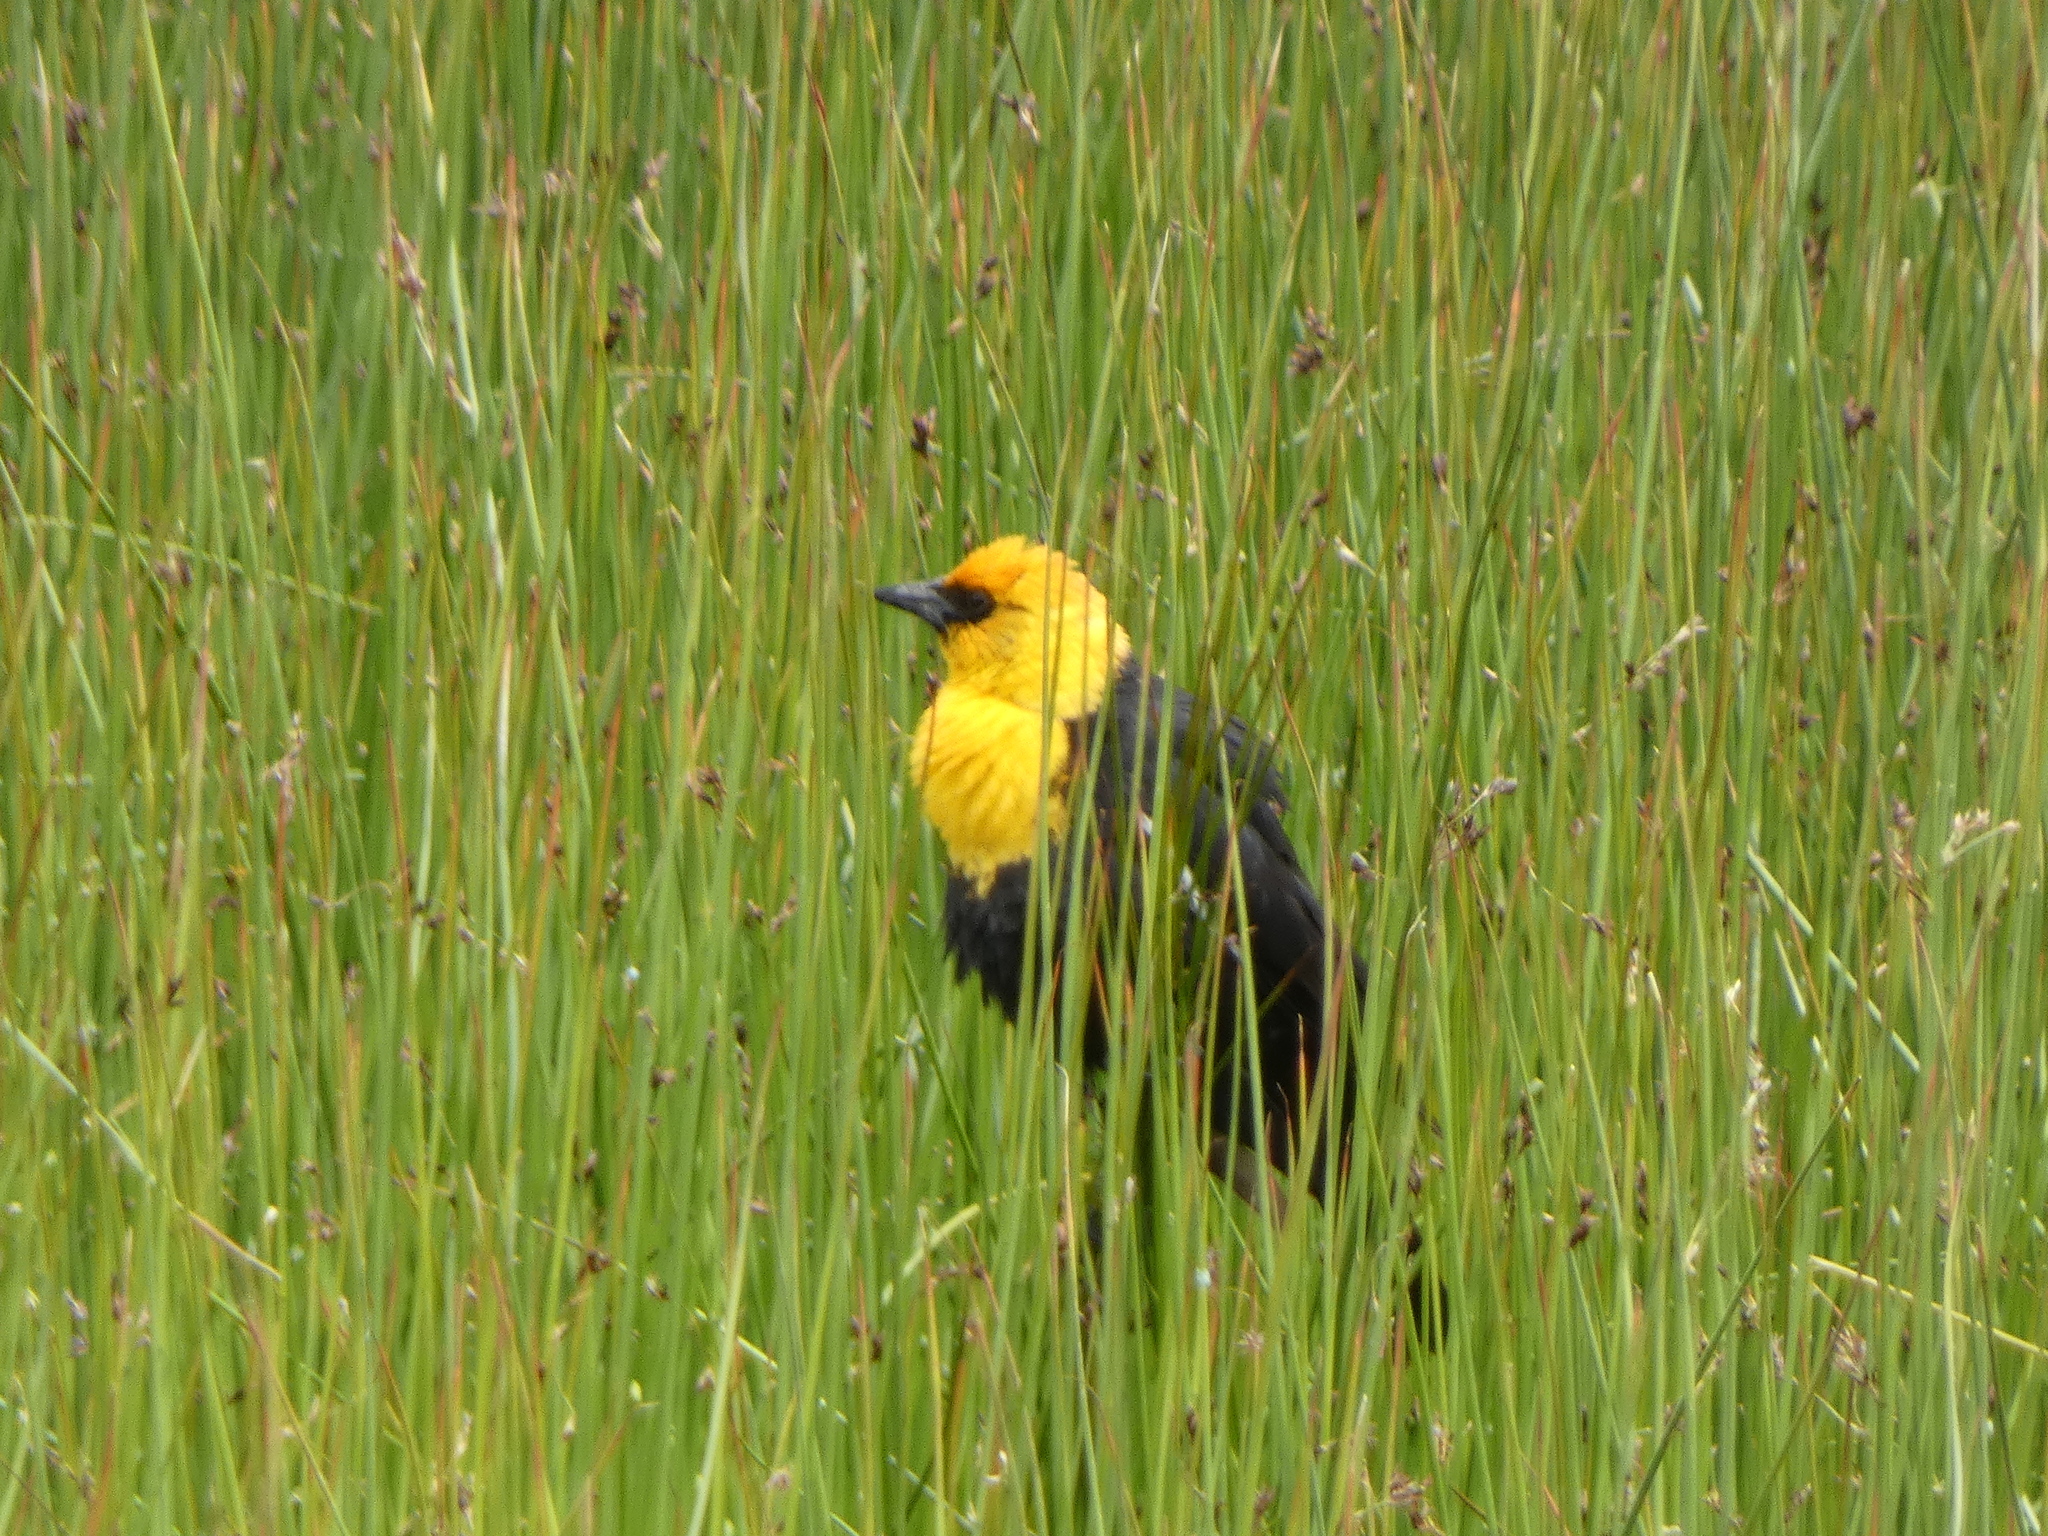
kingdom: Animalia
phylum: Chordata
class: Aves
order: Passeriformes
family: Icteridae
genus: Xanthocephalus
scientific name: Xanthocephalus xanthocephalus
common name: Yellow-headed blackbird
